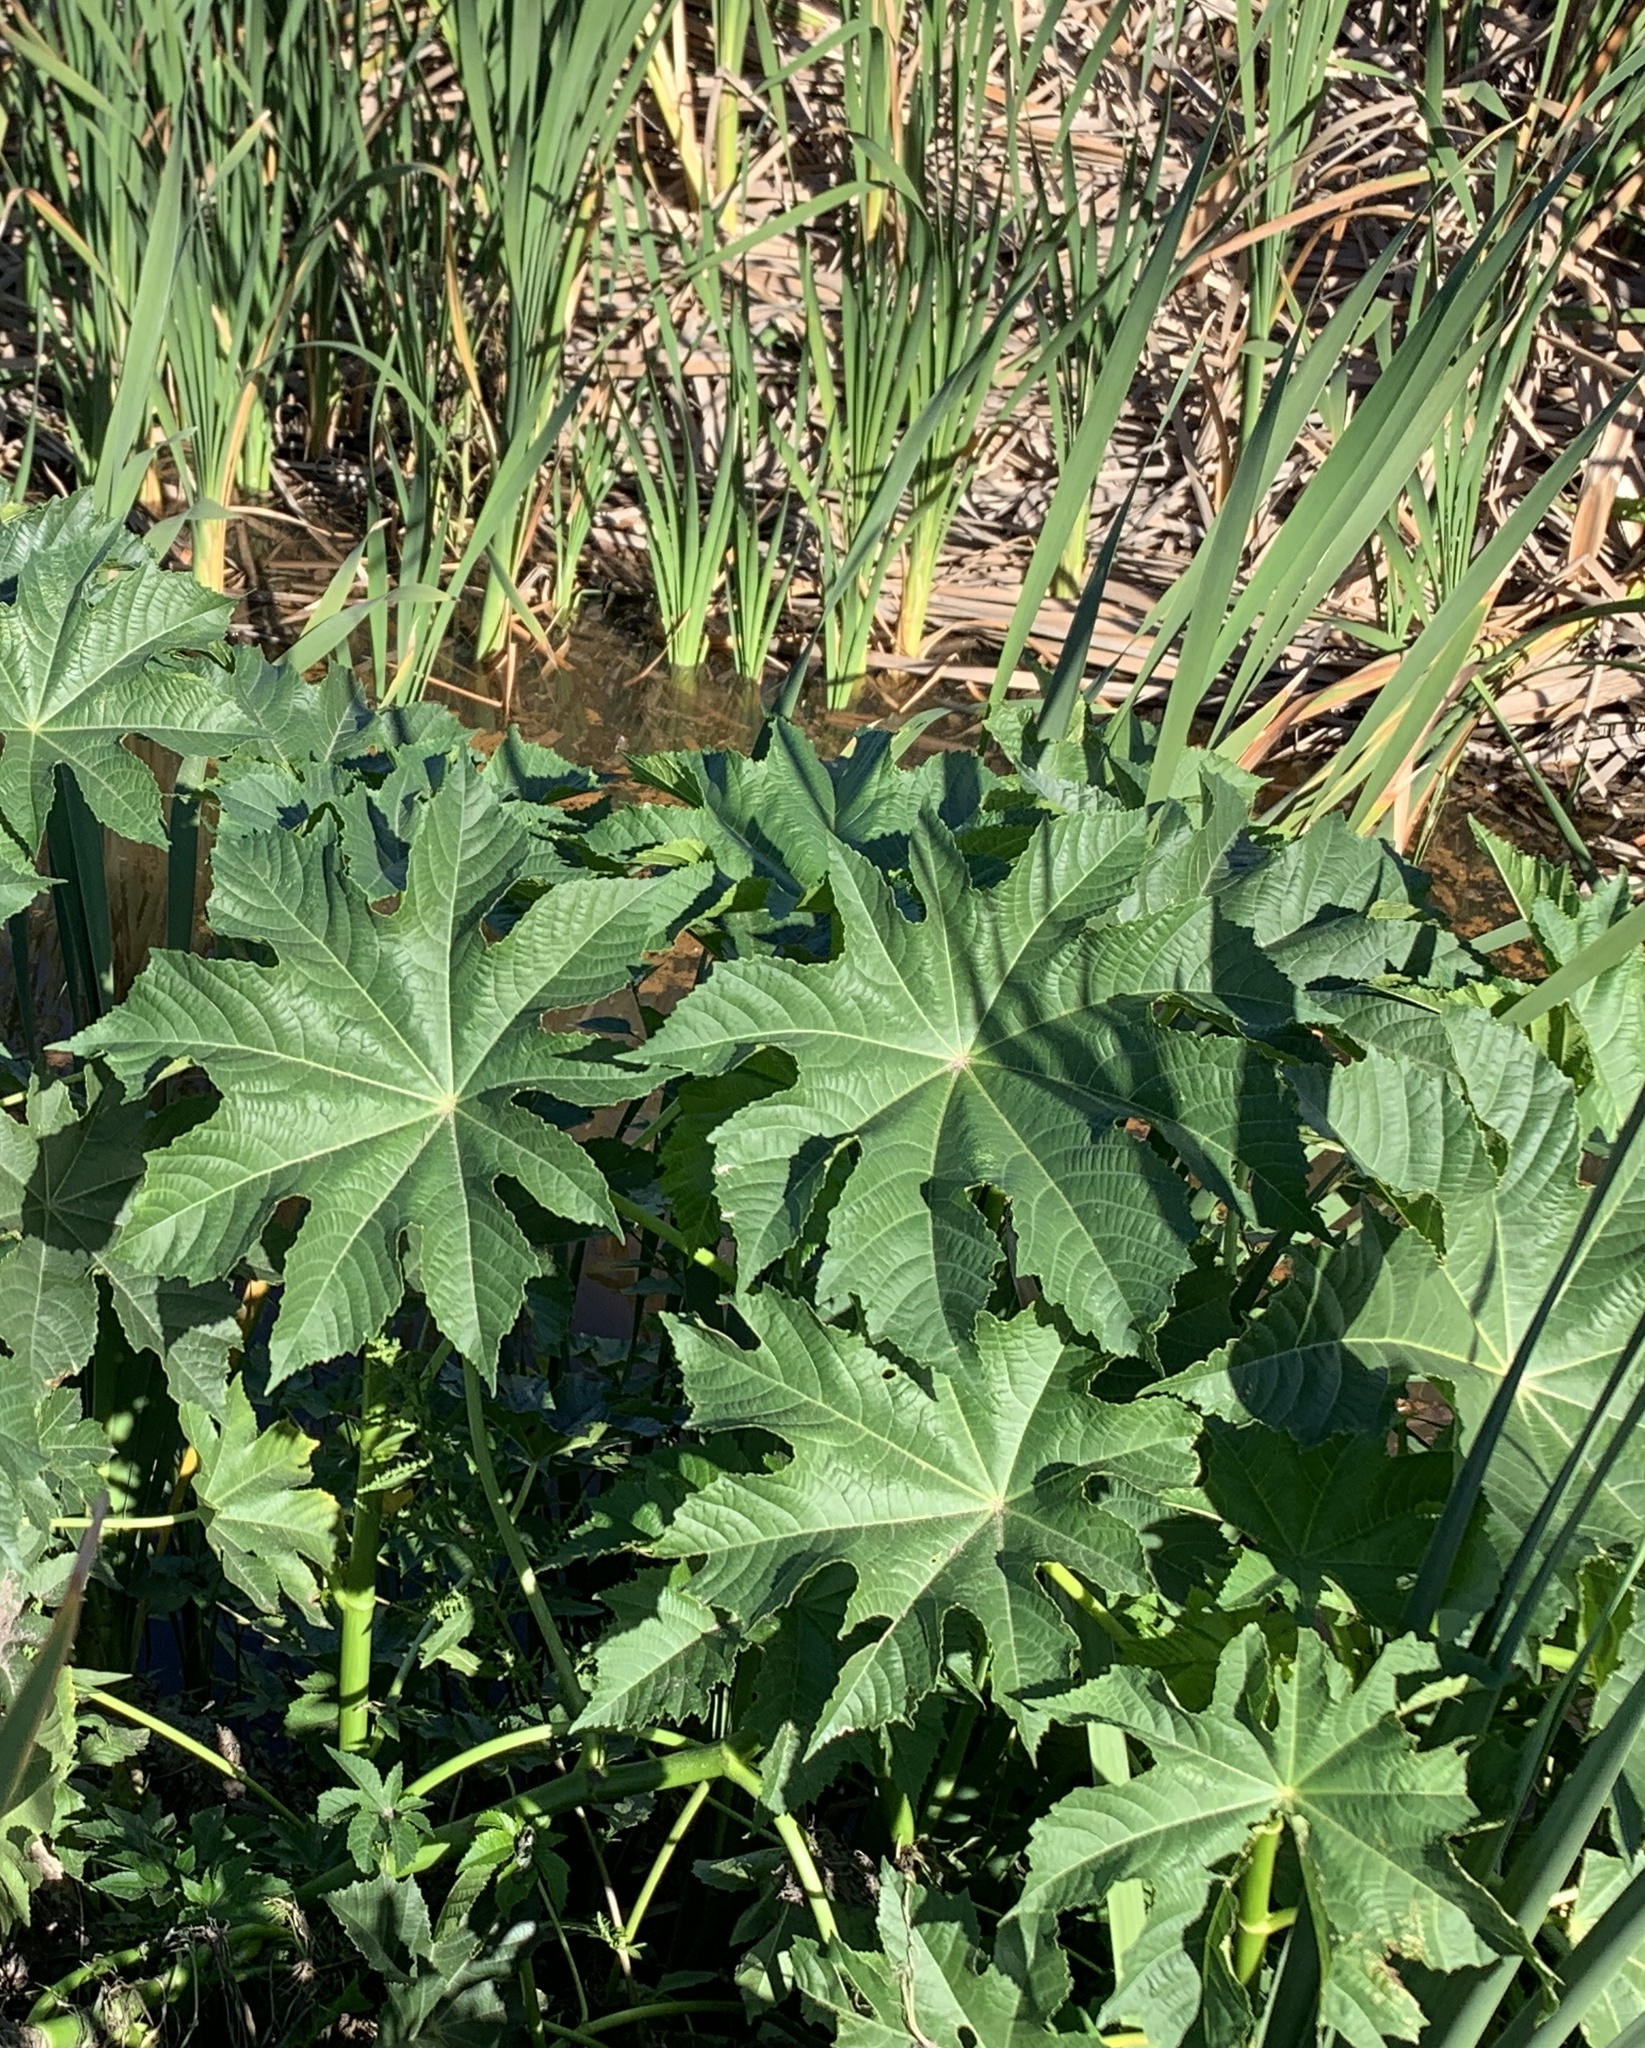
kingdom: Plantae
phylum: Tracheophyta
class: Magnoliopsida
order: Malpighiales
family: Euphorbiaceae
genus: Ricinus
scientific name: Ricinus communis
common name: Castor-oil-plant
